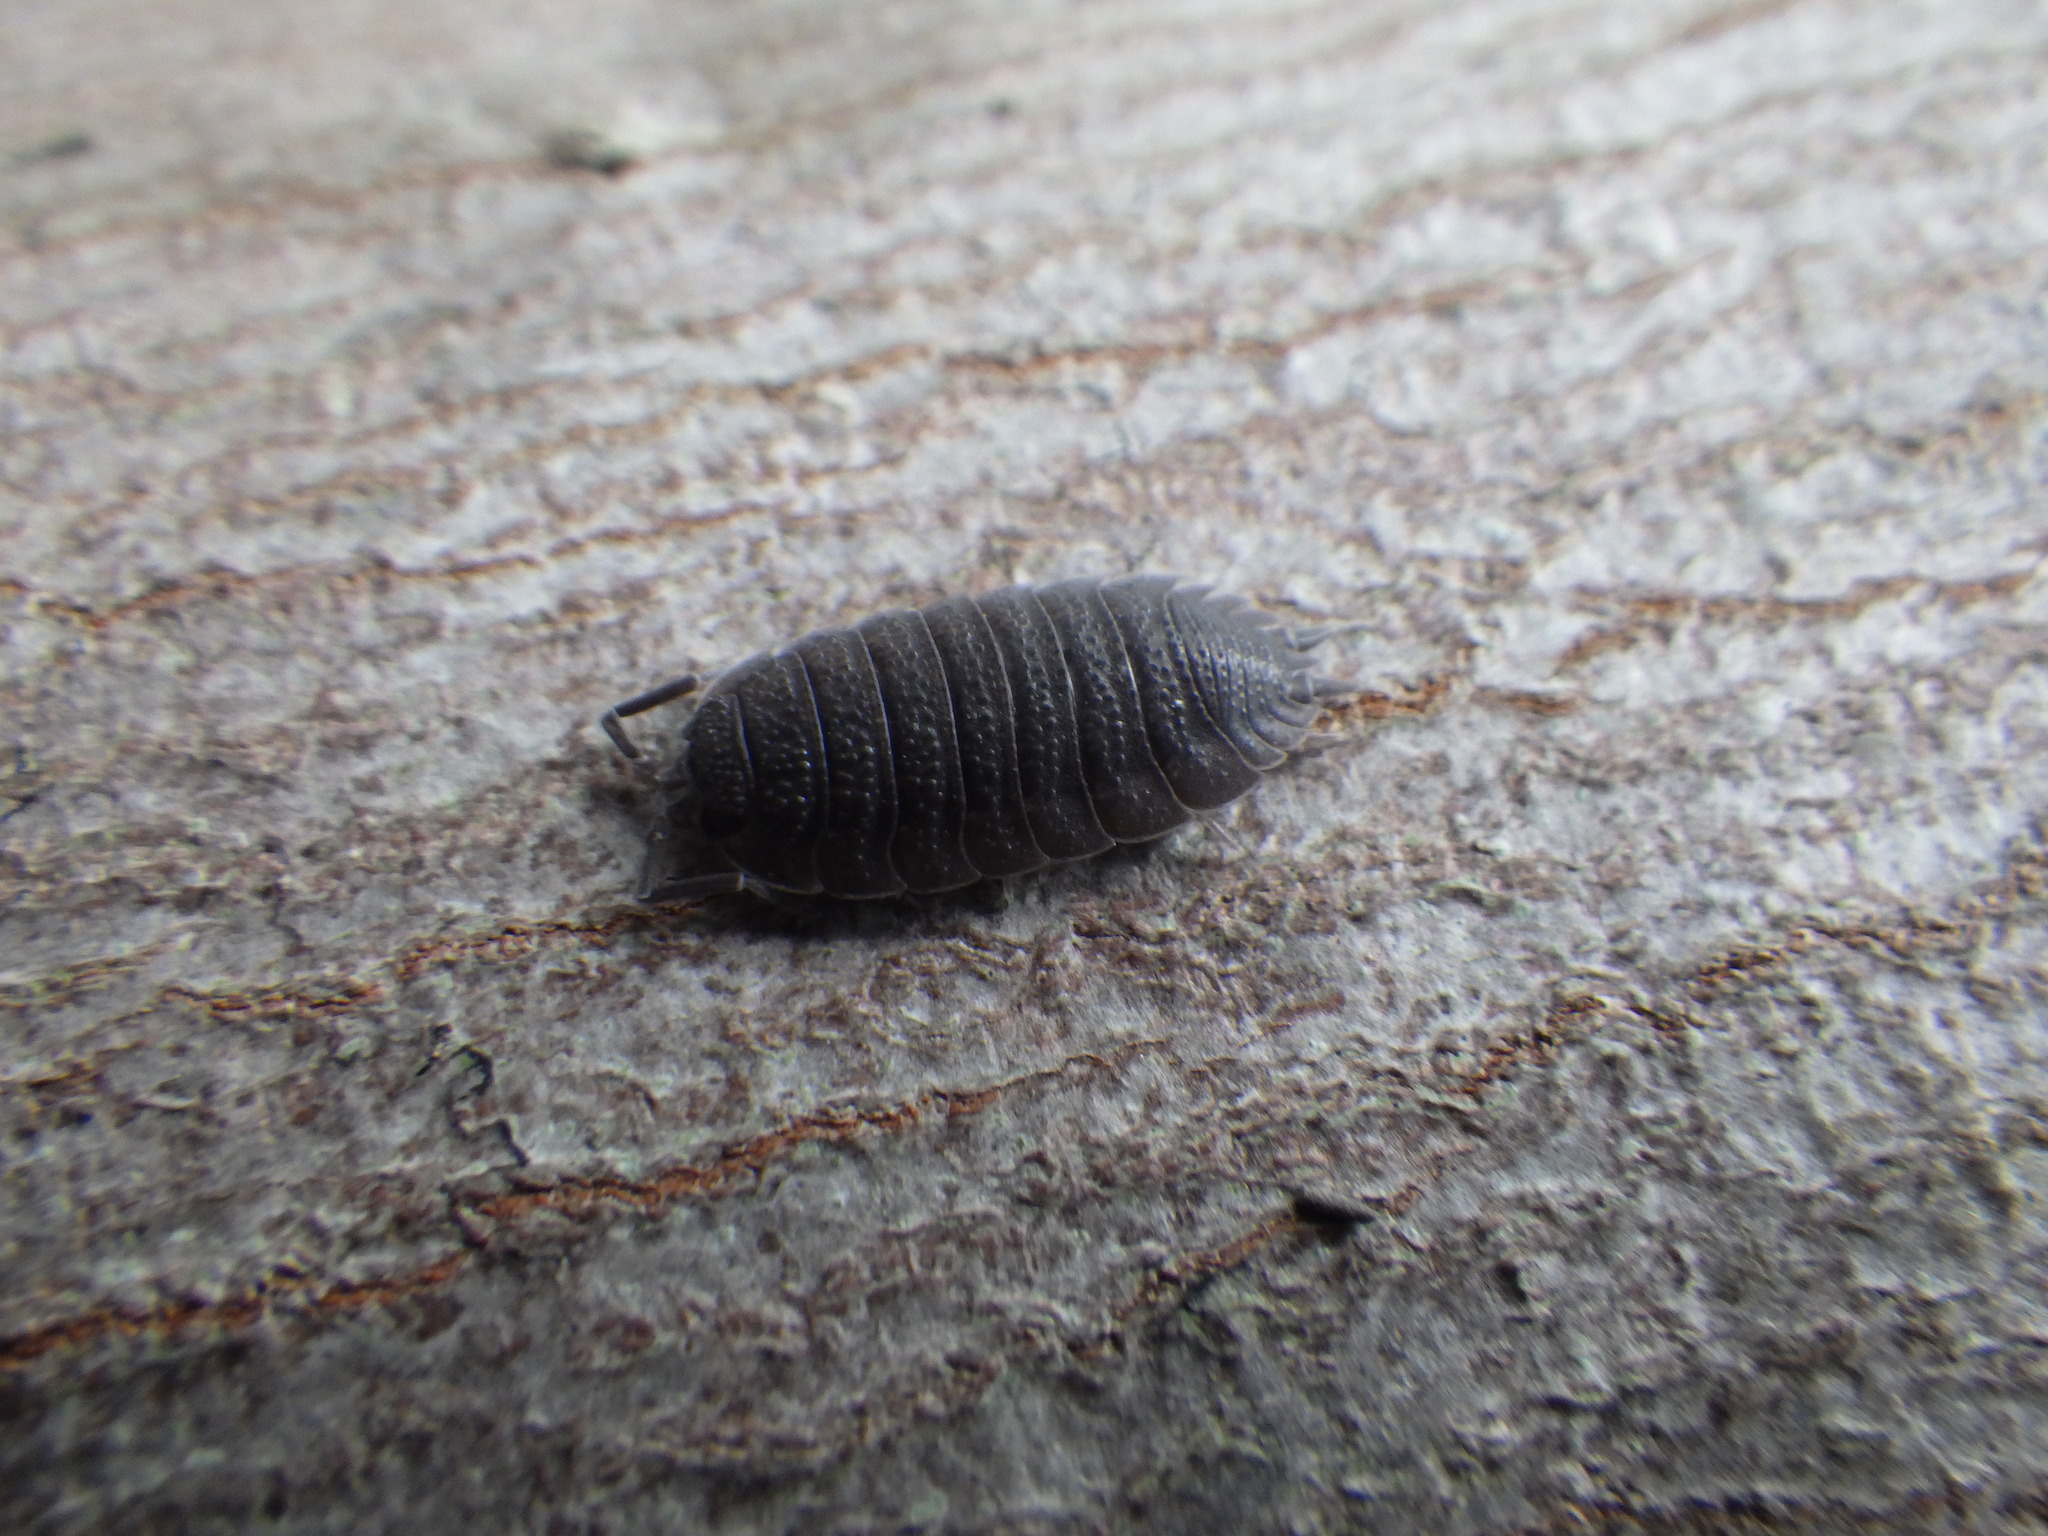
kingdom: Animalia
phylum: Arthropoda
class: Malacostraca
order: Isopoda
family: Porcellionidae
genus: Porcellio
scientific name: Porcellio scaber
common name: Common rough woodlouse
